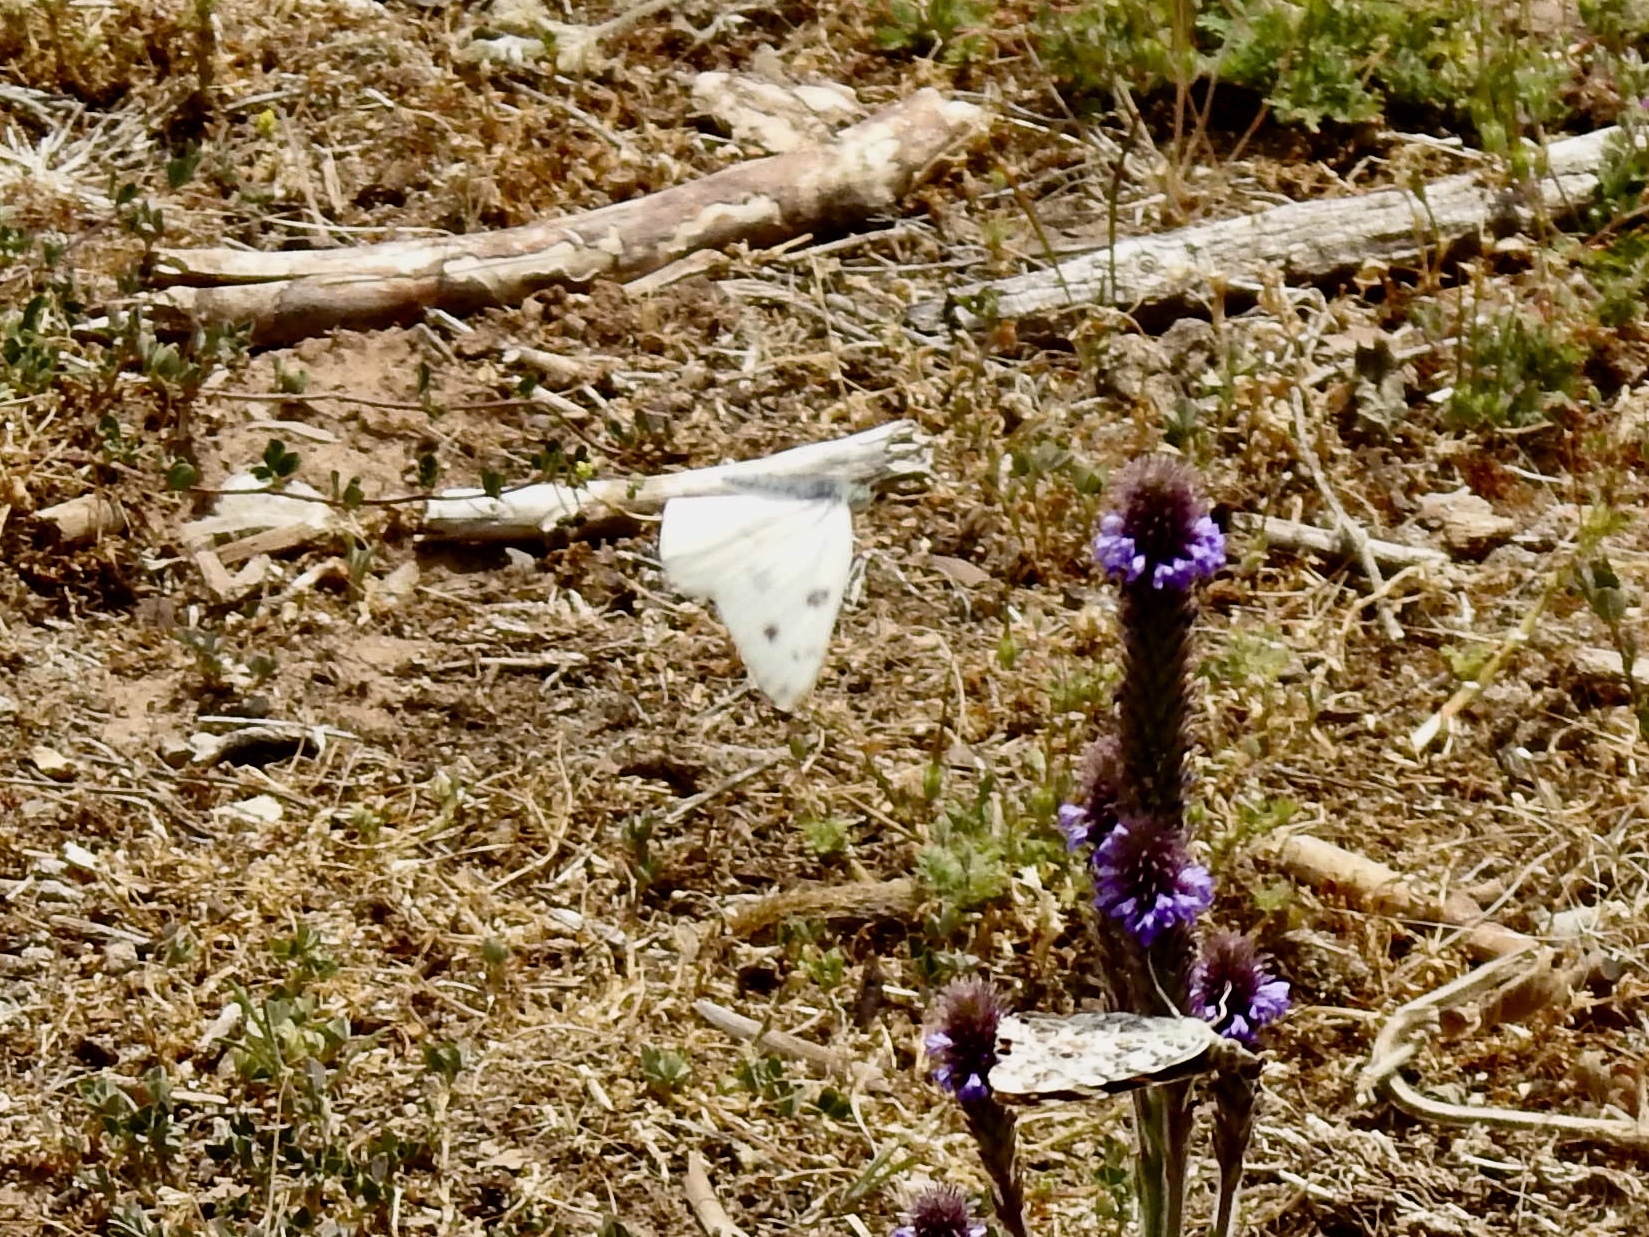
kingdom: Animalia
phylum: Arthropoda
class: Insecta
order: Lepidoptera
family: Pieridae
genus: Pontia
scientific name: Pontia protodice
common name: Checkered white
